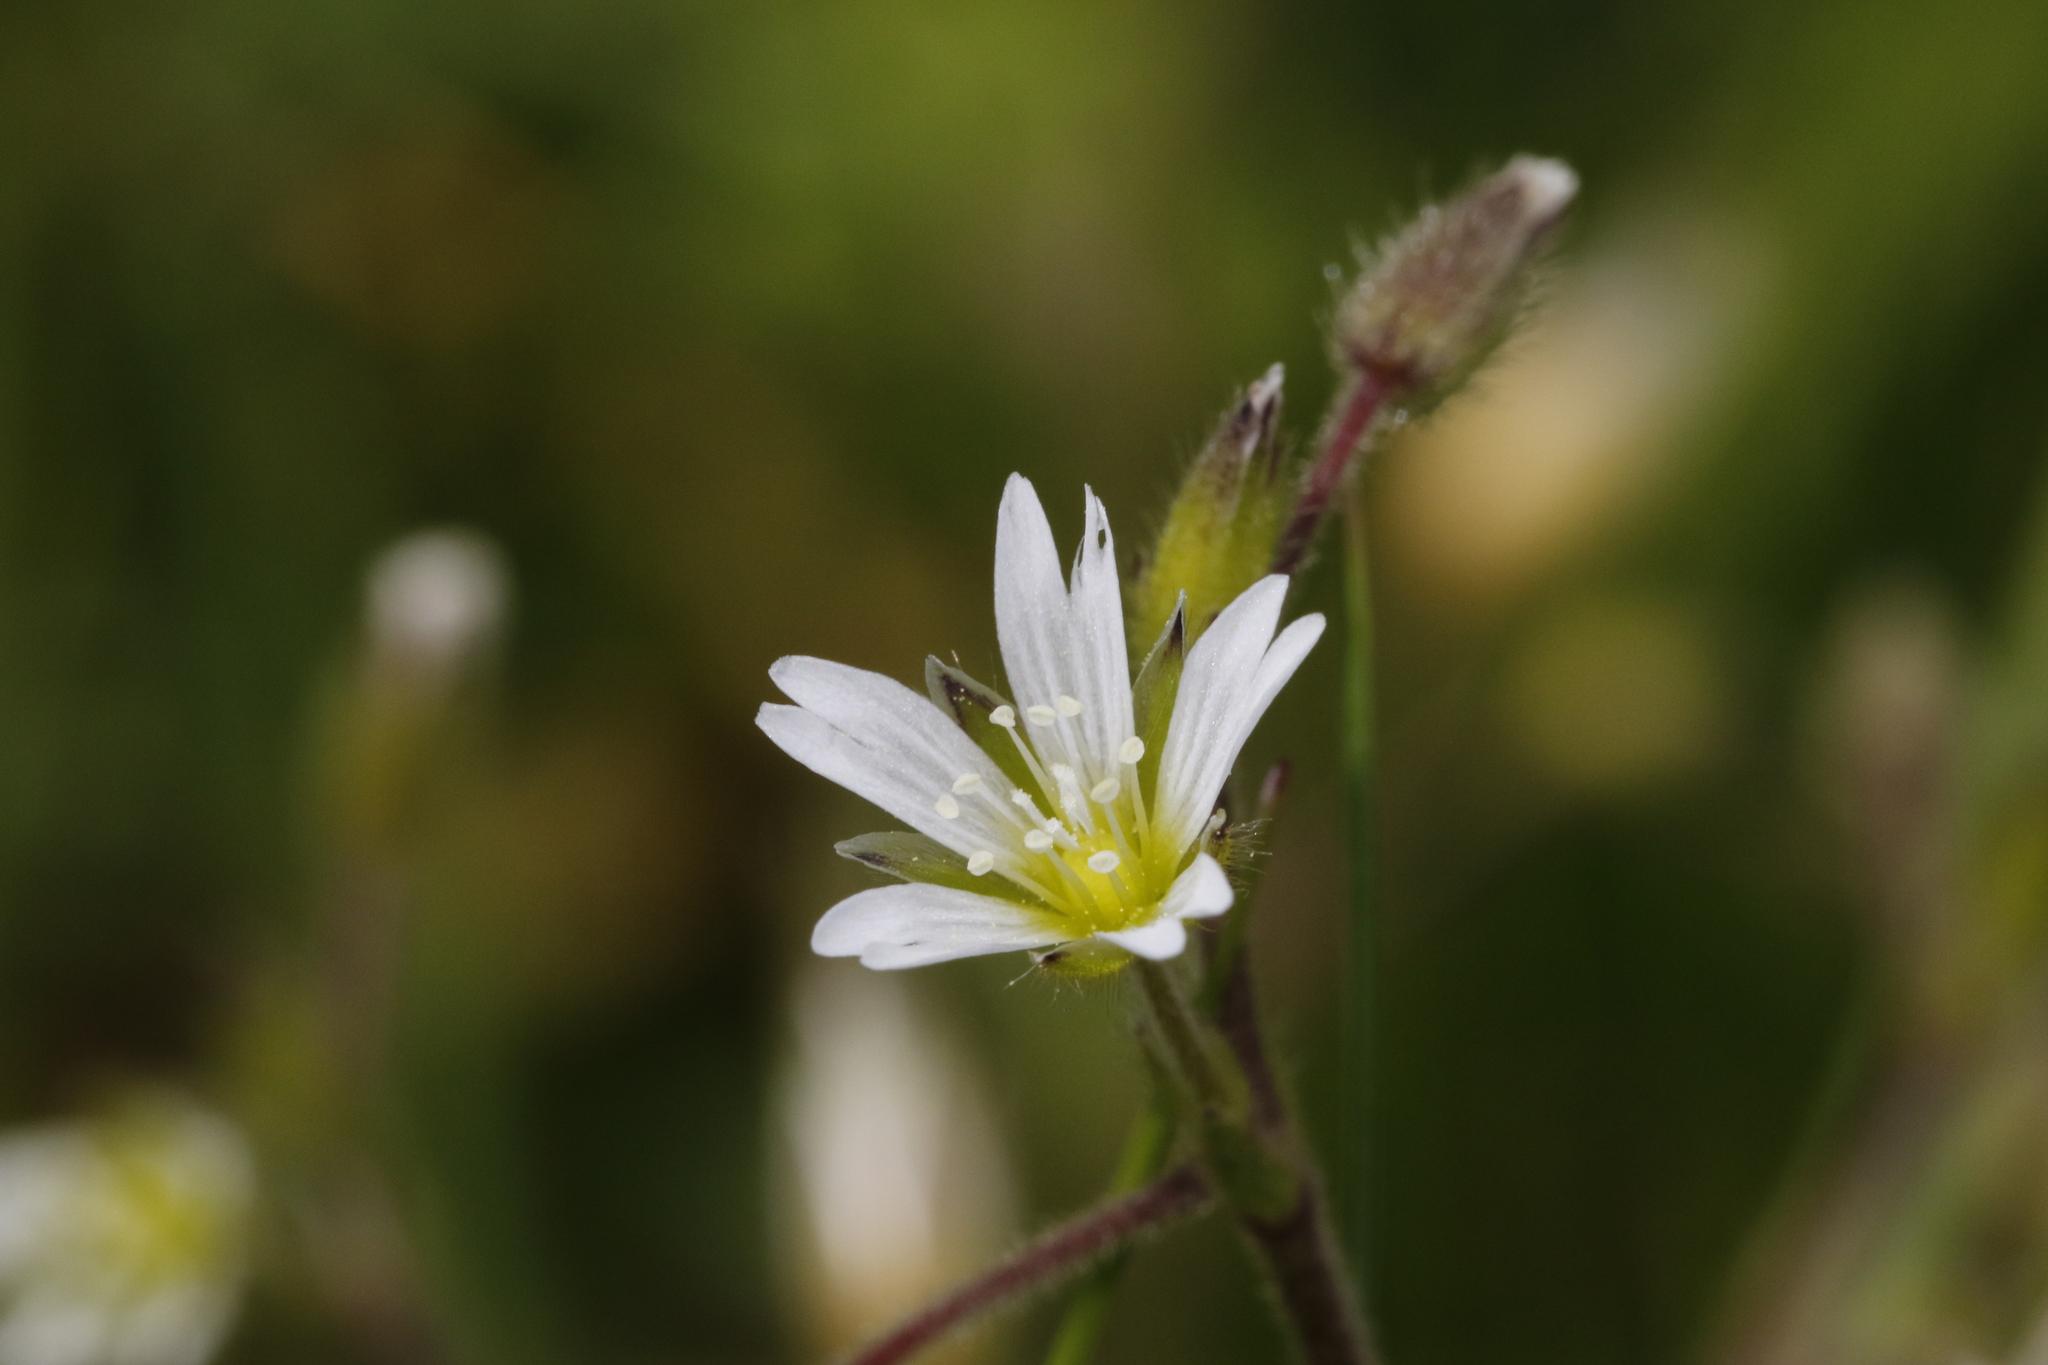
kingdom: Plantae
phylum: Tracheophyta
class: Magnoliopsida
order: Caryophyllales
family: Caryophyllaceae
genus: Cerastium
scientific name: Cerastium fontanum
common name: Common mouse-ear
